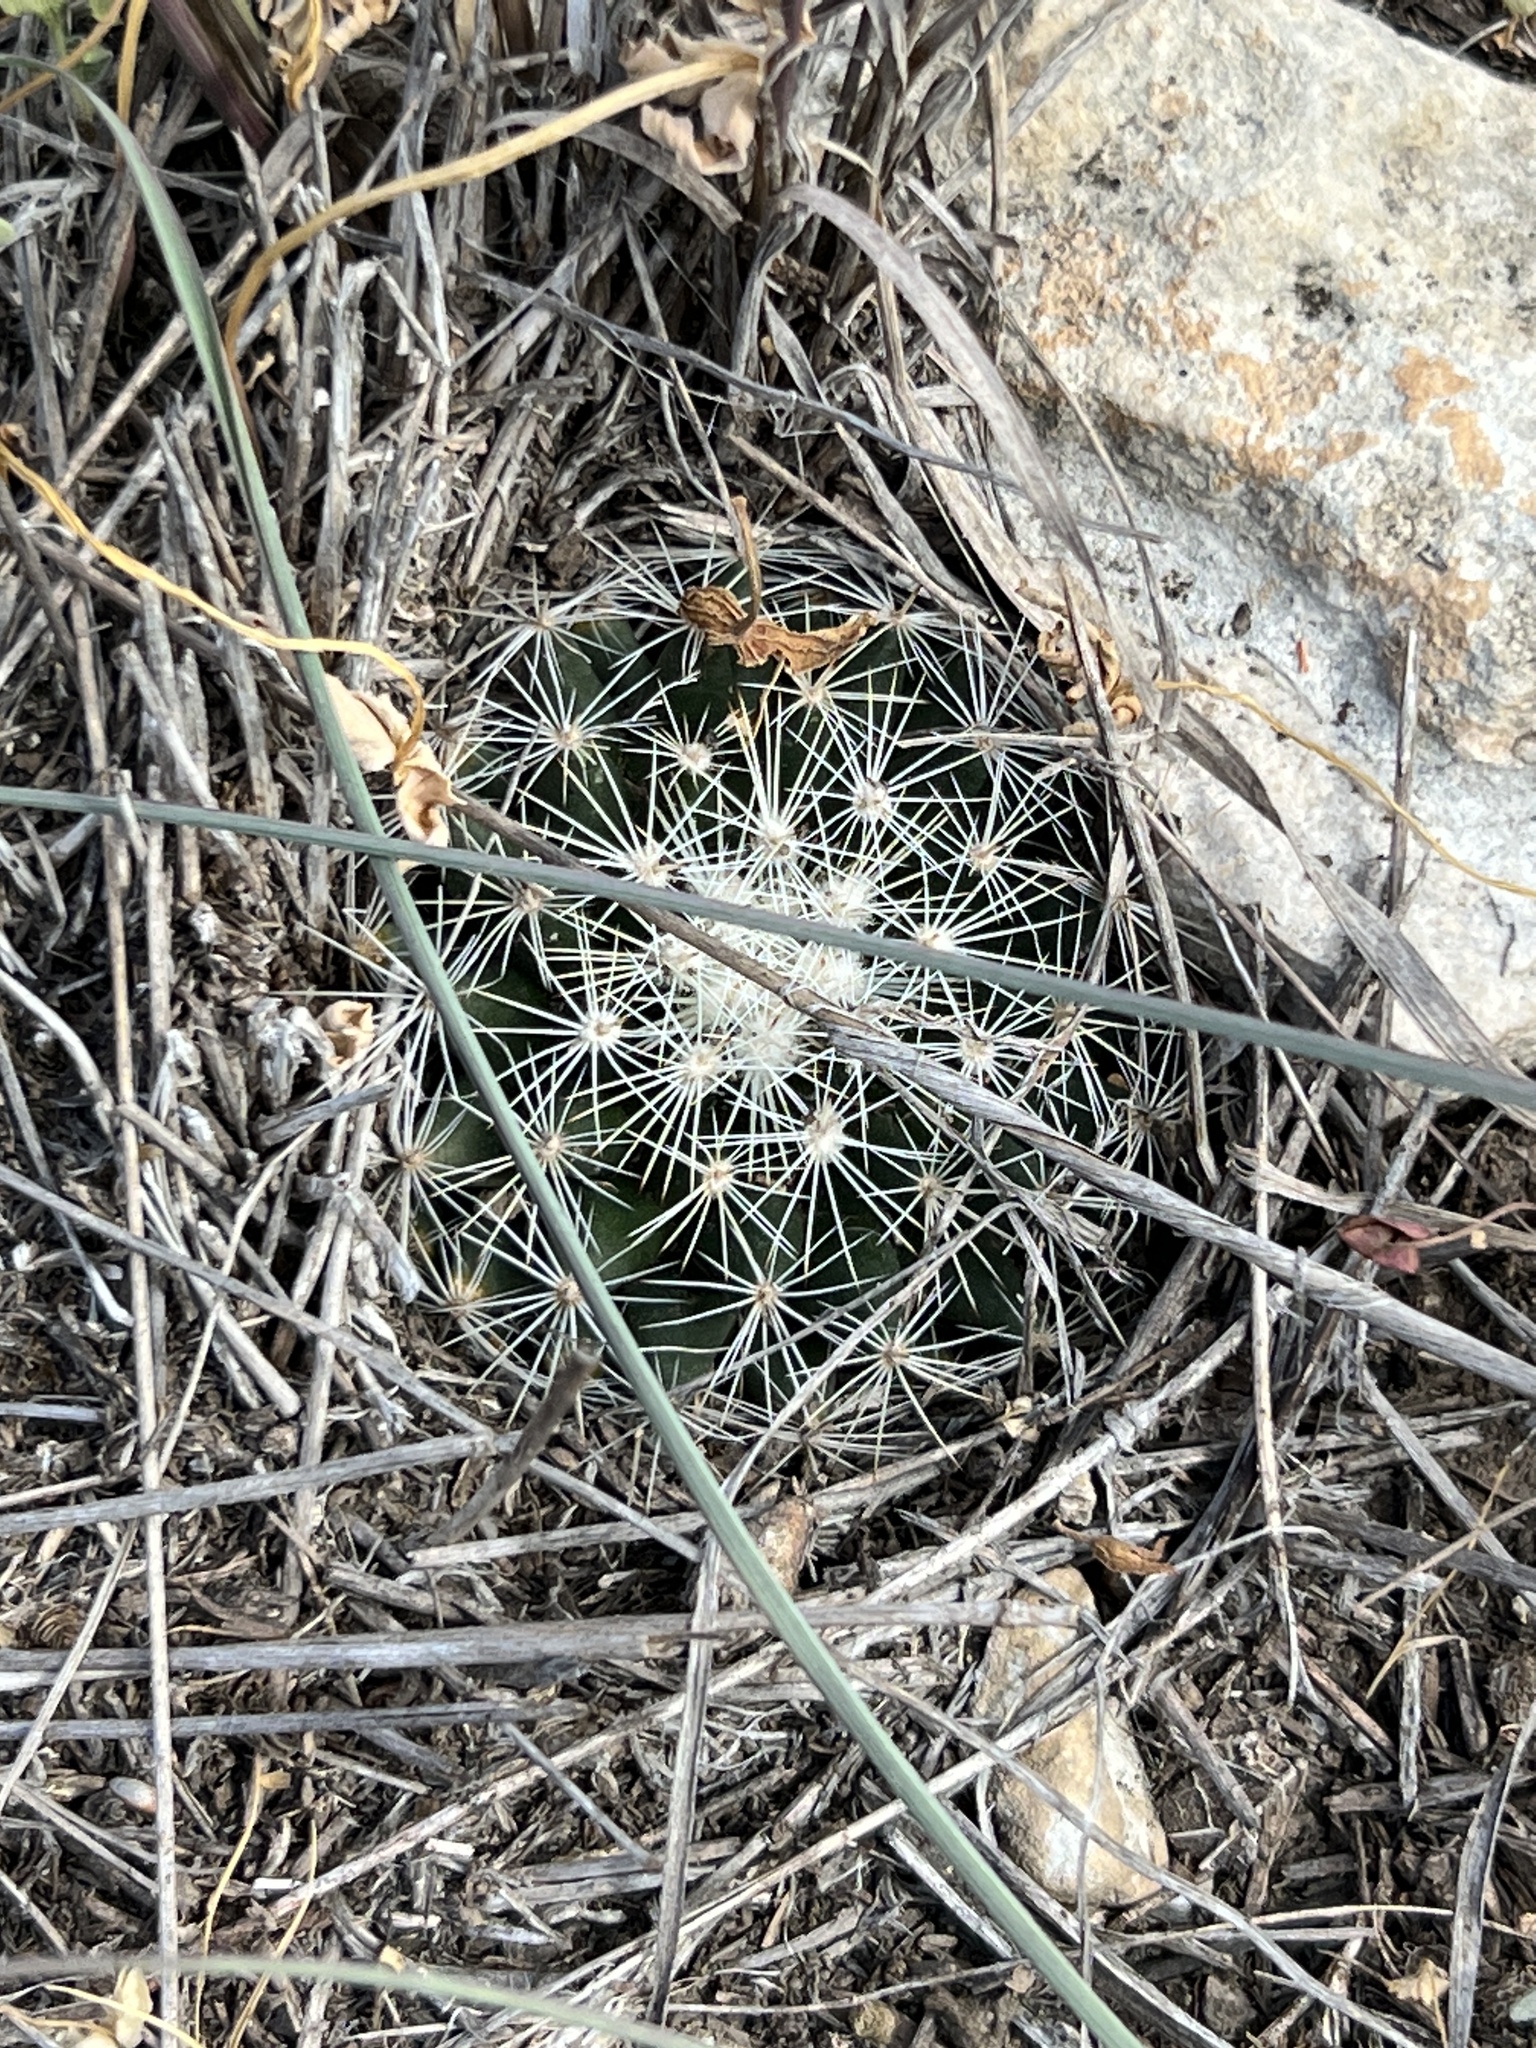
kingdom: Plantae
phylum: Tracheophyta
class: Magnoliopsida
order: Caryophyllales
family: Cactaceae
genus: Mammillaria
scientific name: Mammillaria heyderi
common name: Little nipple cactus
